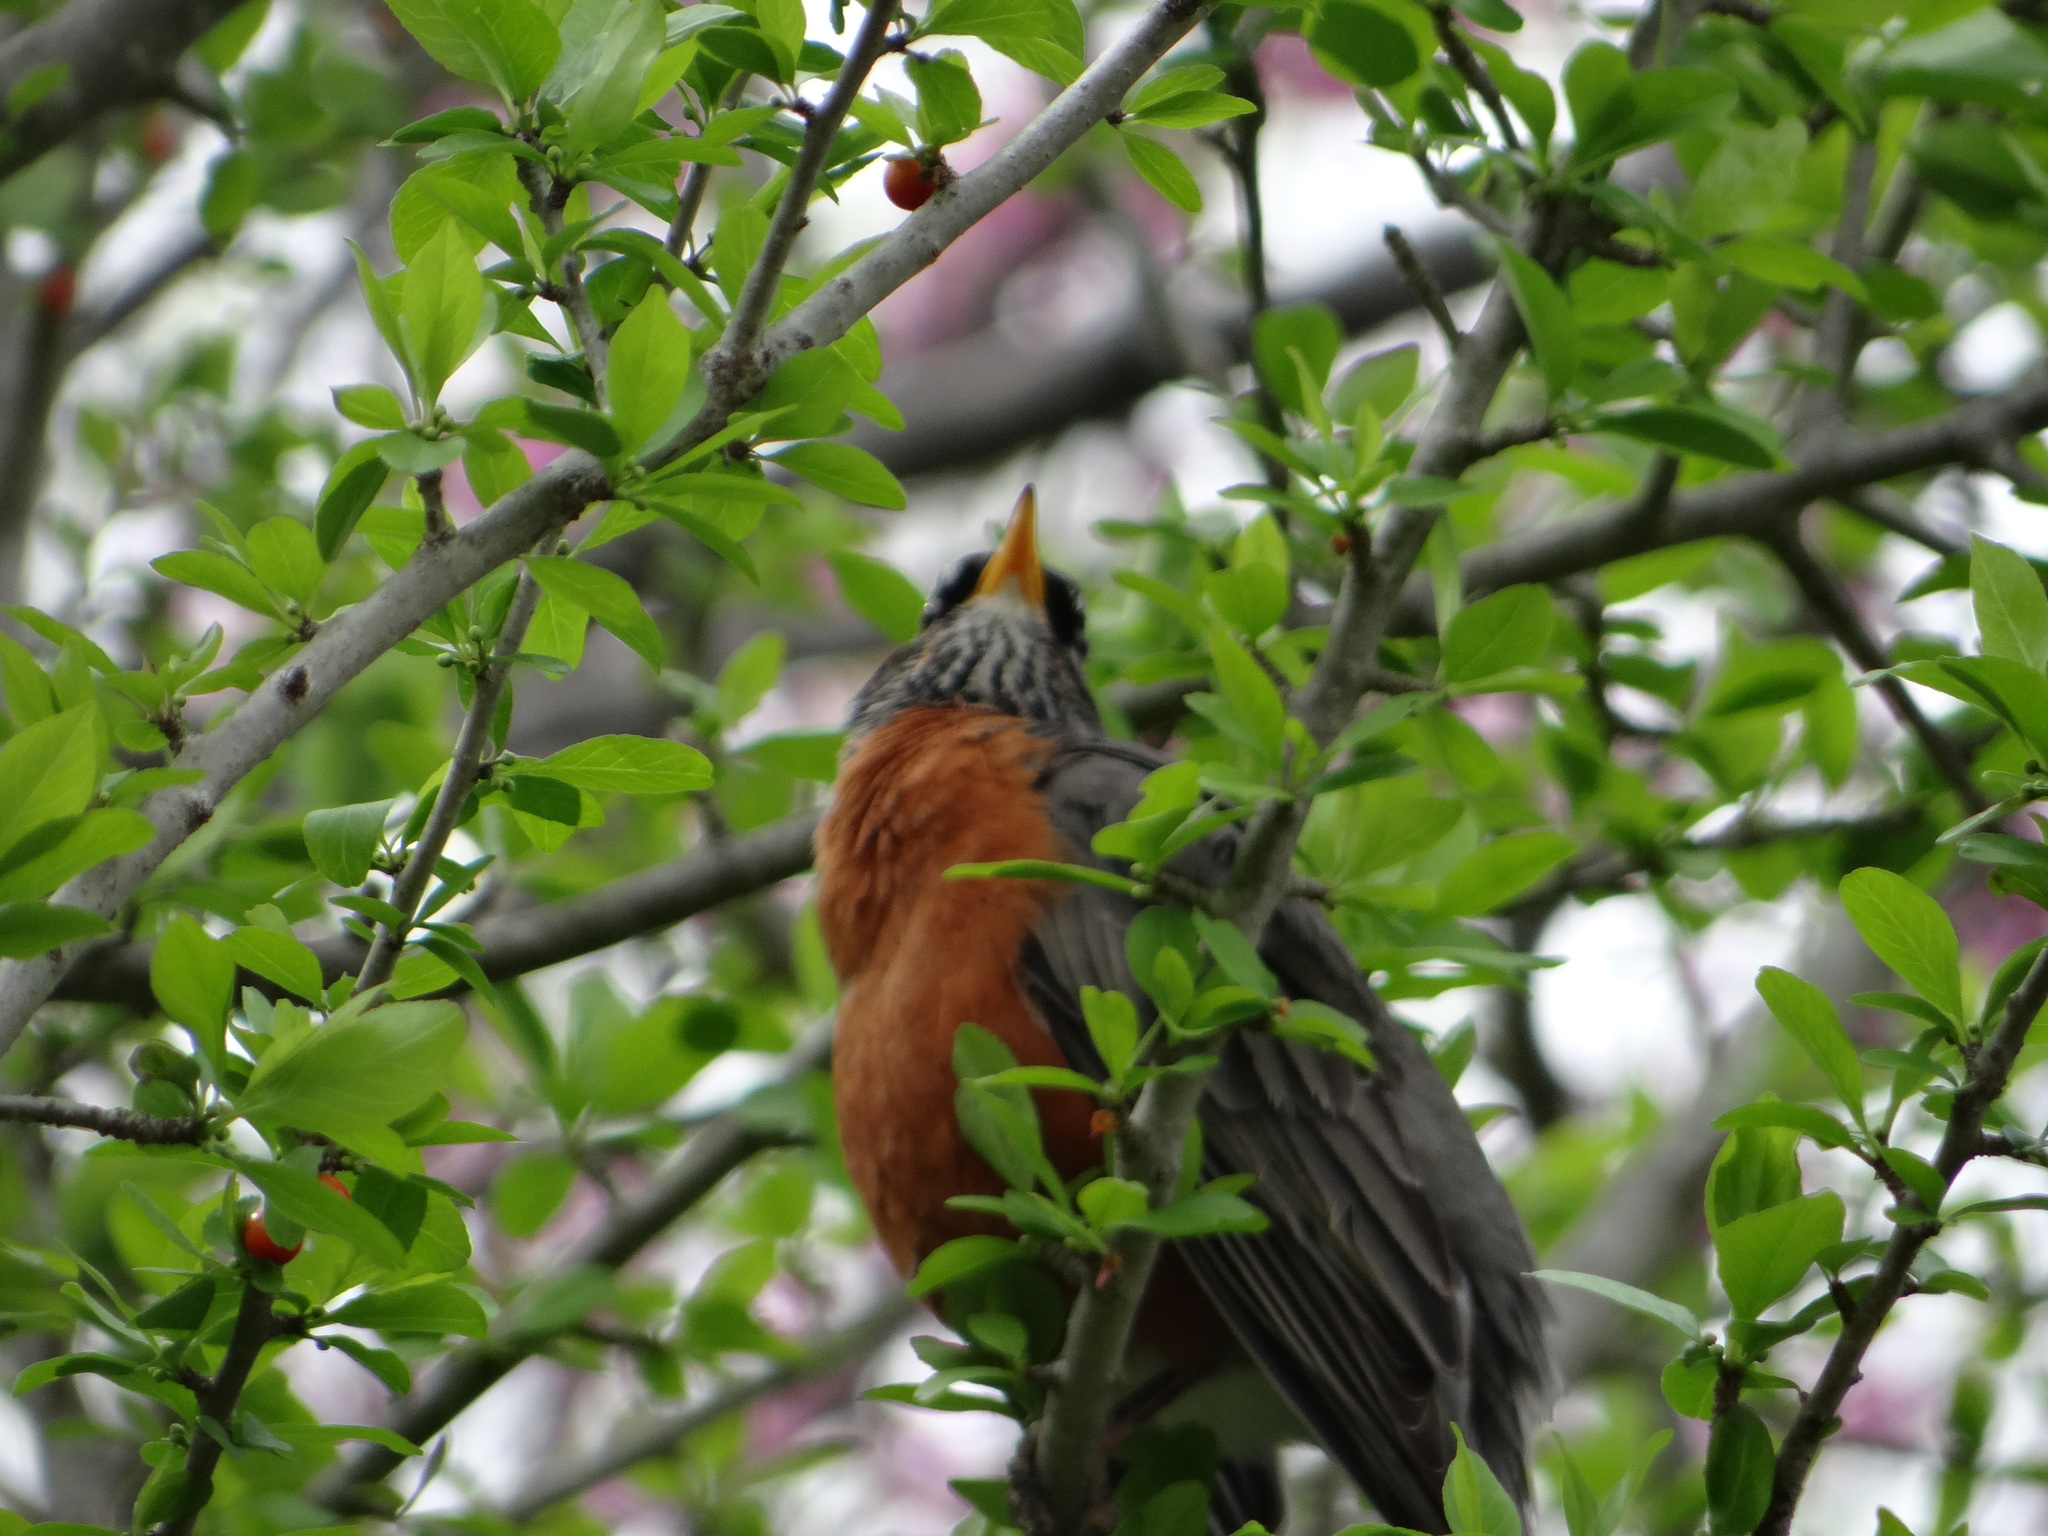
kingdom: Animalia
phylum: Chordata
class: Aves
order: Passeriformes
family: Turdidae
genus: Turdus
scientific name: Turdus migratorius
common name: American robin
